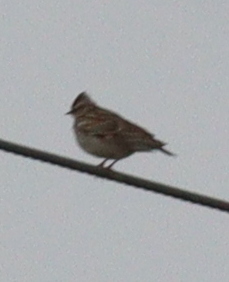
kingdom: Animalia
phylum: Chordata
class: Aves
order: Passeriformes
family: Alaudidae
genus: Lullula
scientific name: Lullula arborea
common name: Woodlark
